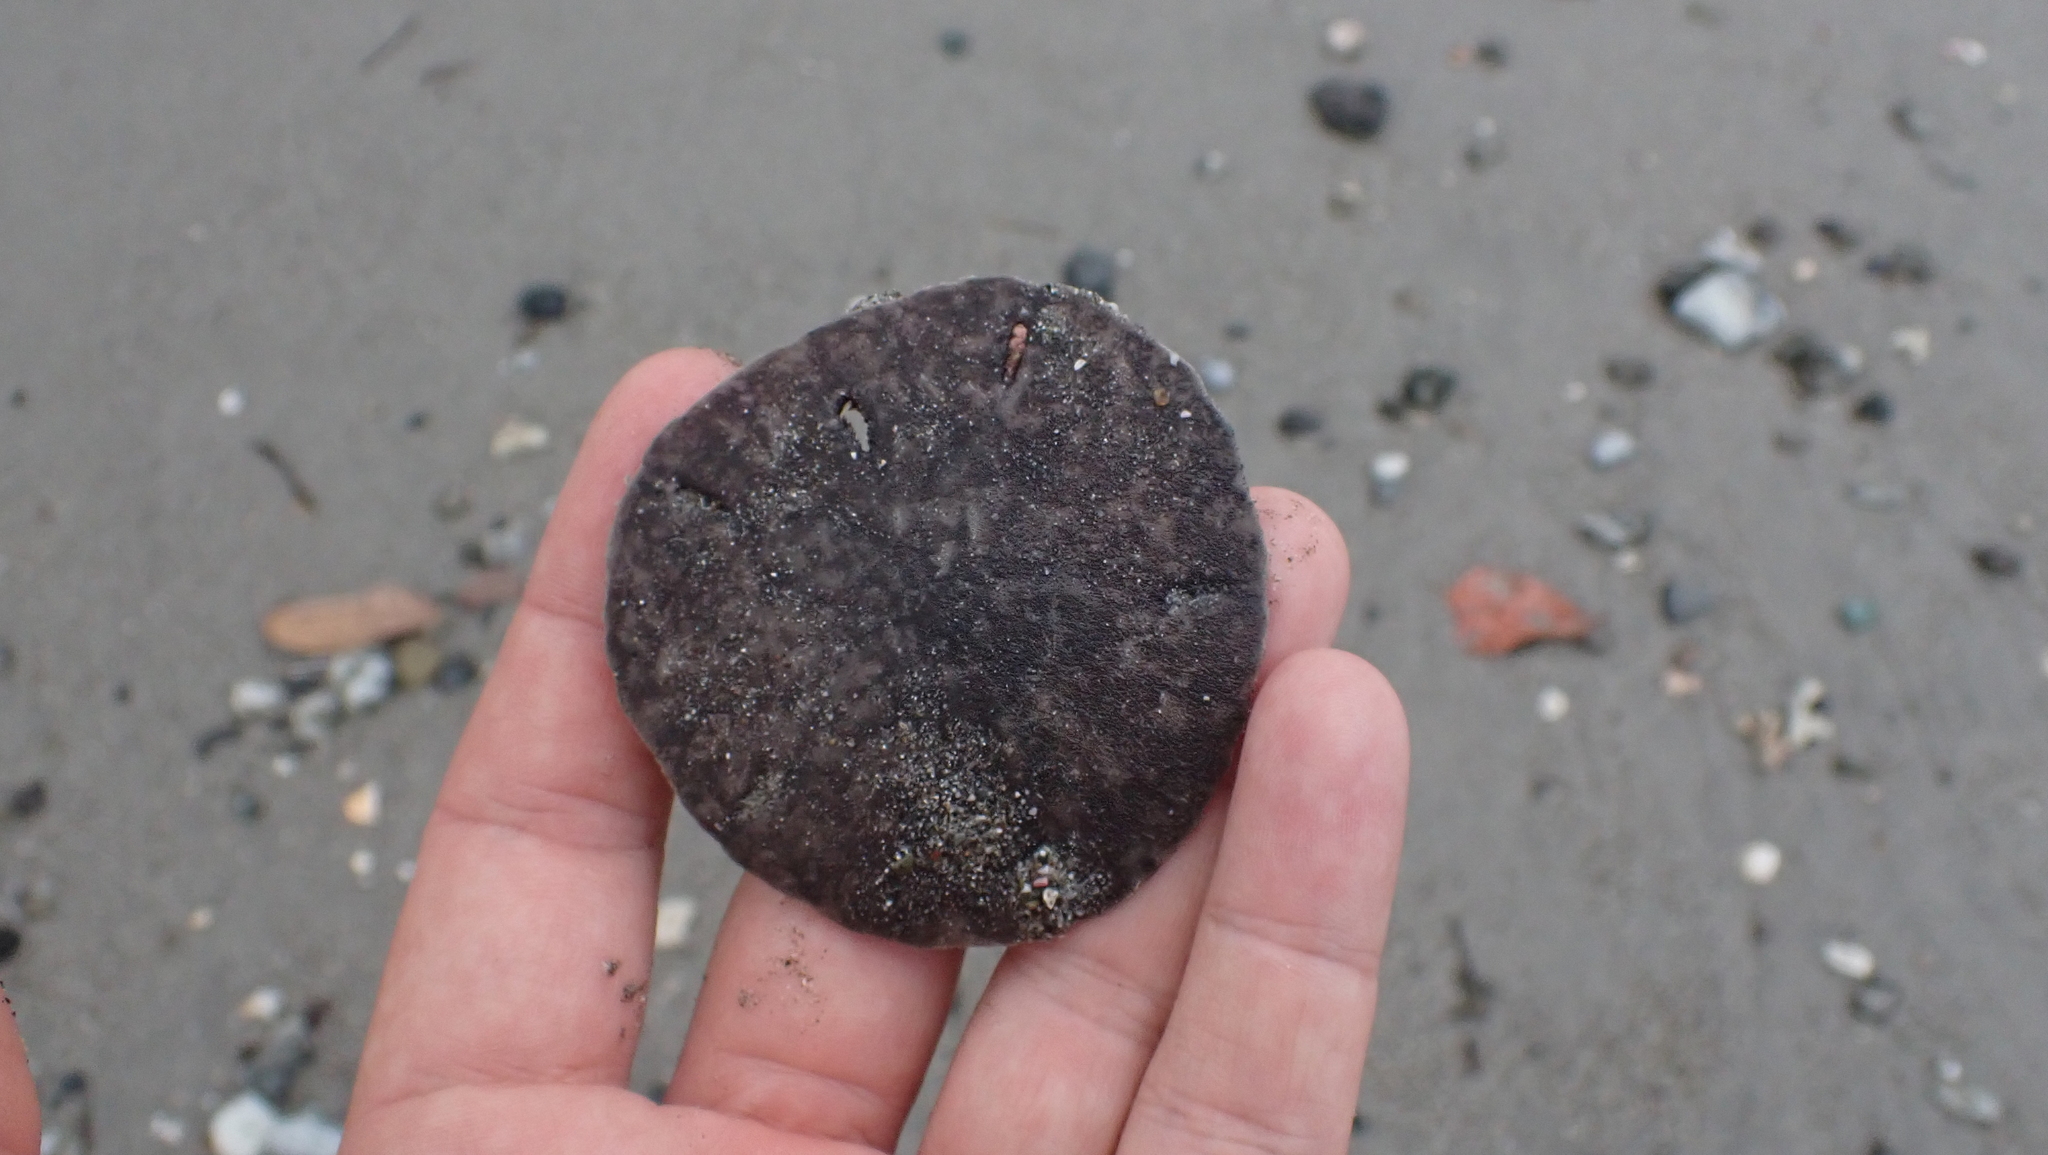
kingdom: Animalia
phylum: Echinodermata
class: Echinoidea
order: Echinolampadacea
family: Mellitidae
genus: Mellita
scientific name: Mellita quinquiesperforata
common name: Sand dollar
